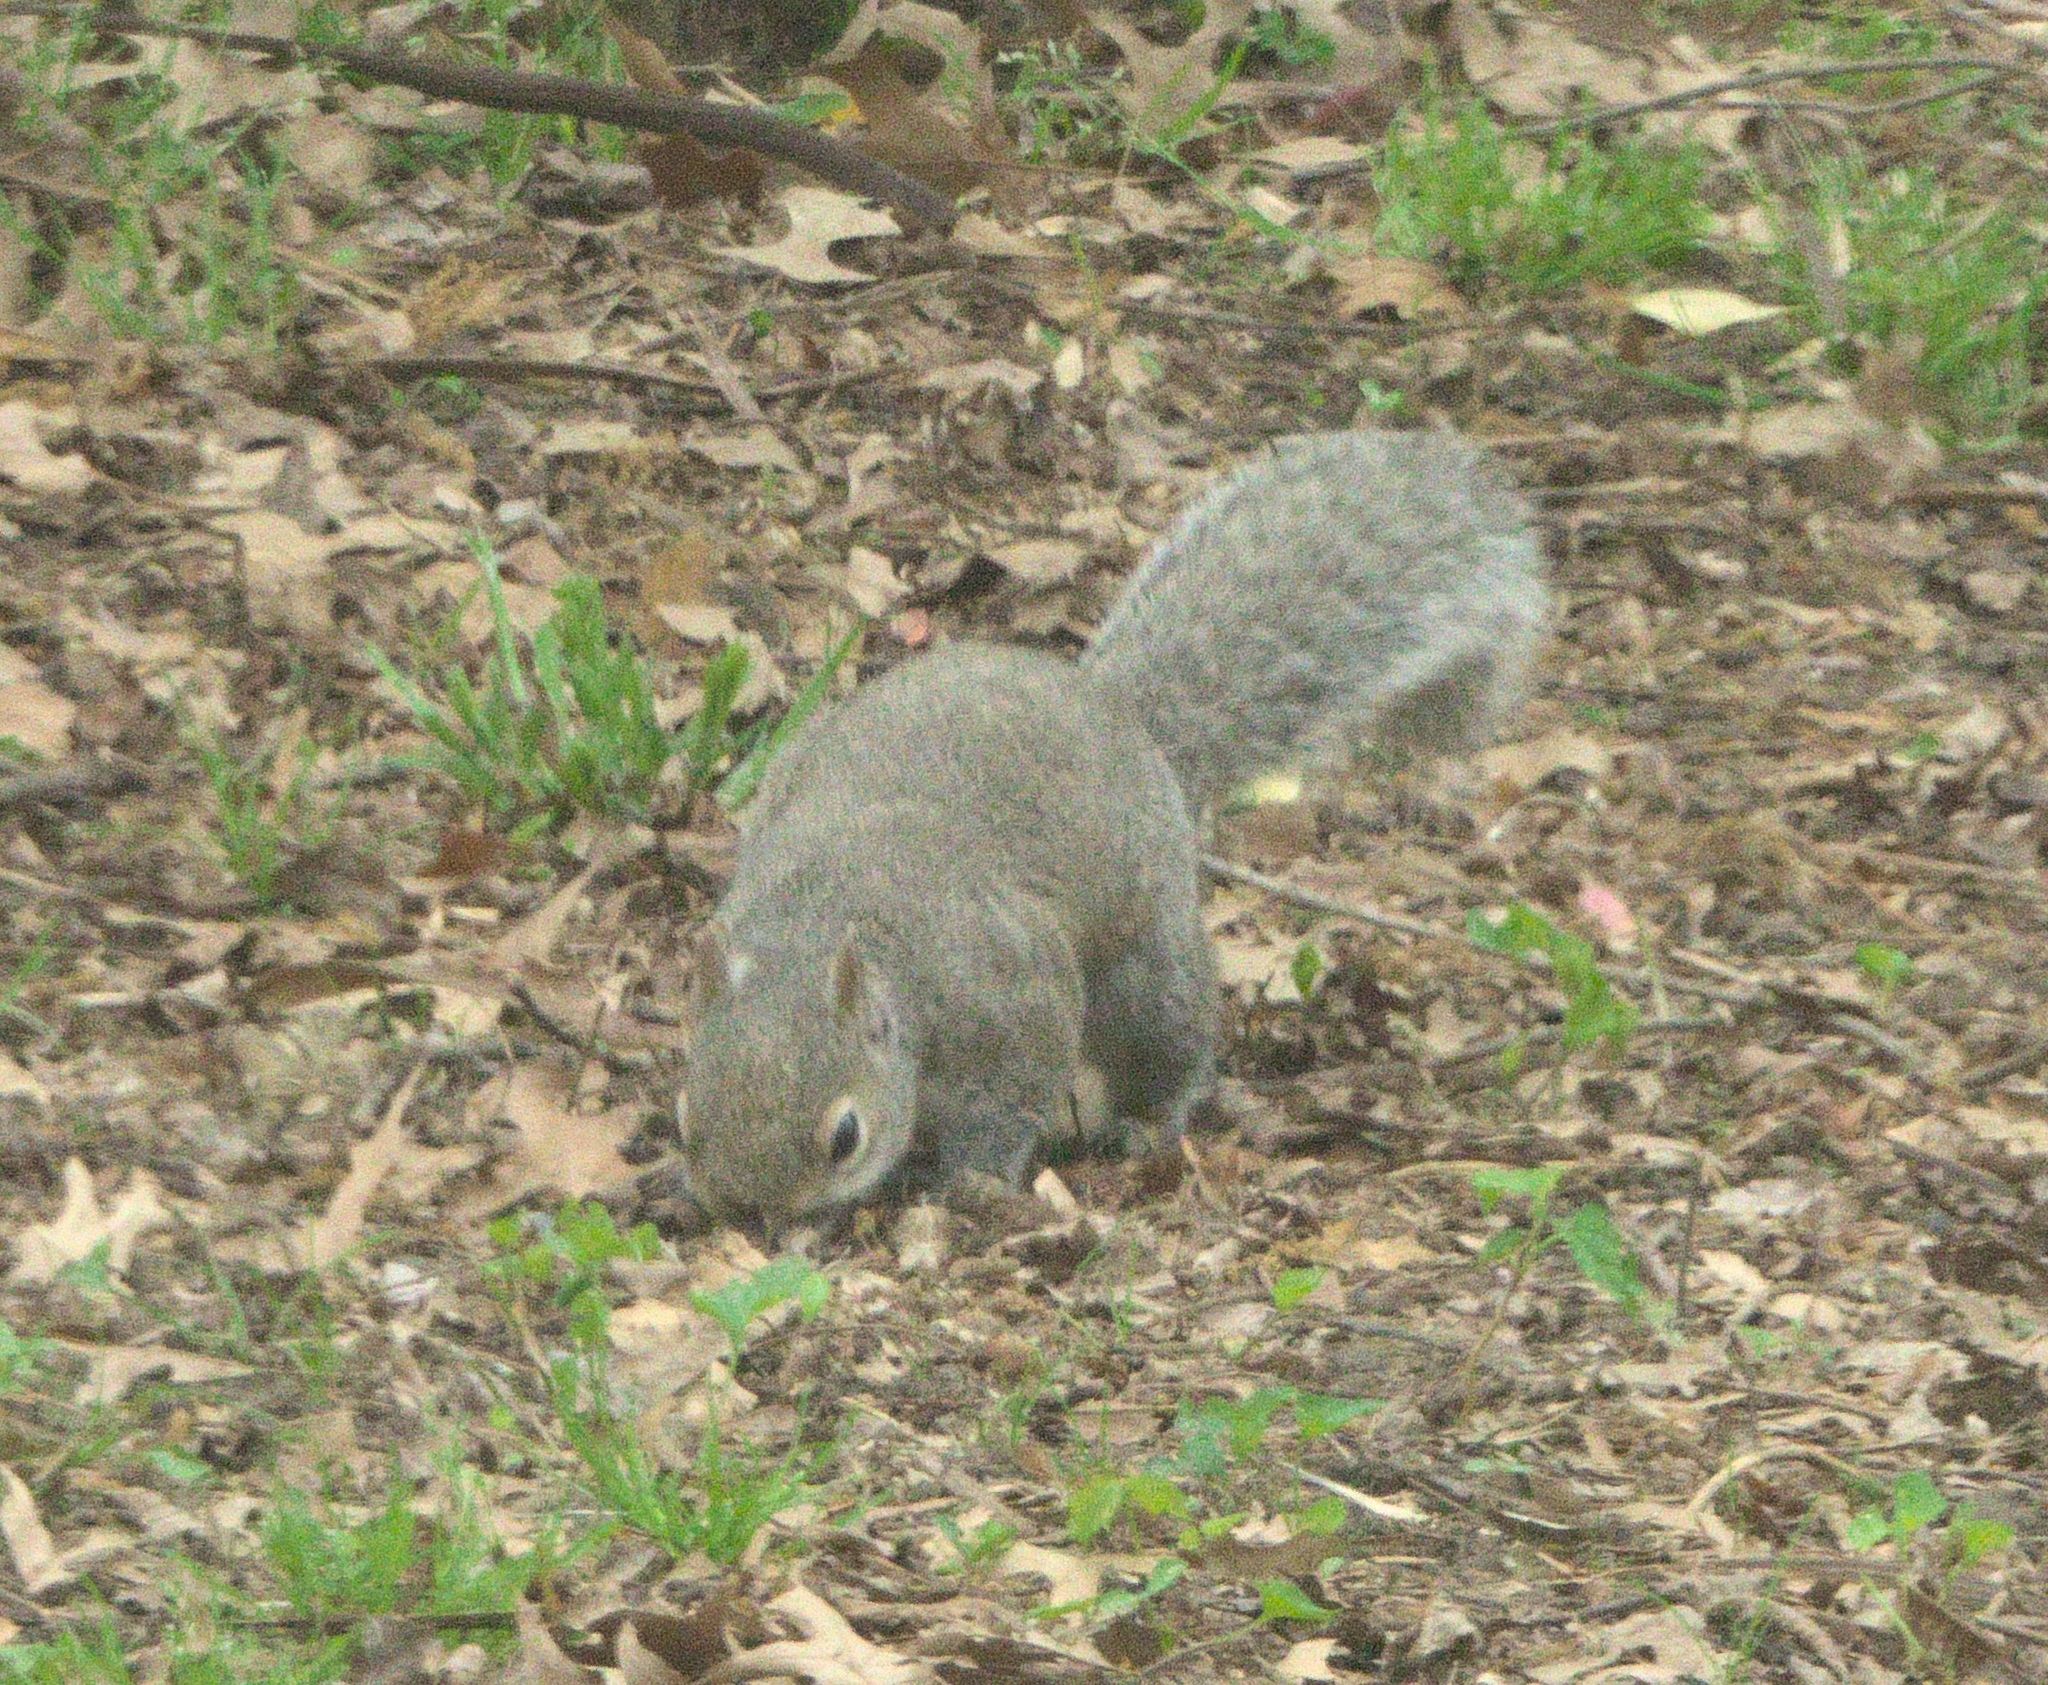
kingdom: Animalia
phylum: Chordata
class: Mammalia
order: Rodentia
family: Sciuridae
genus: Sciurus
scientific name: Sciurus carolinensis
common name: Eastern gray squirrel
